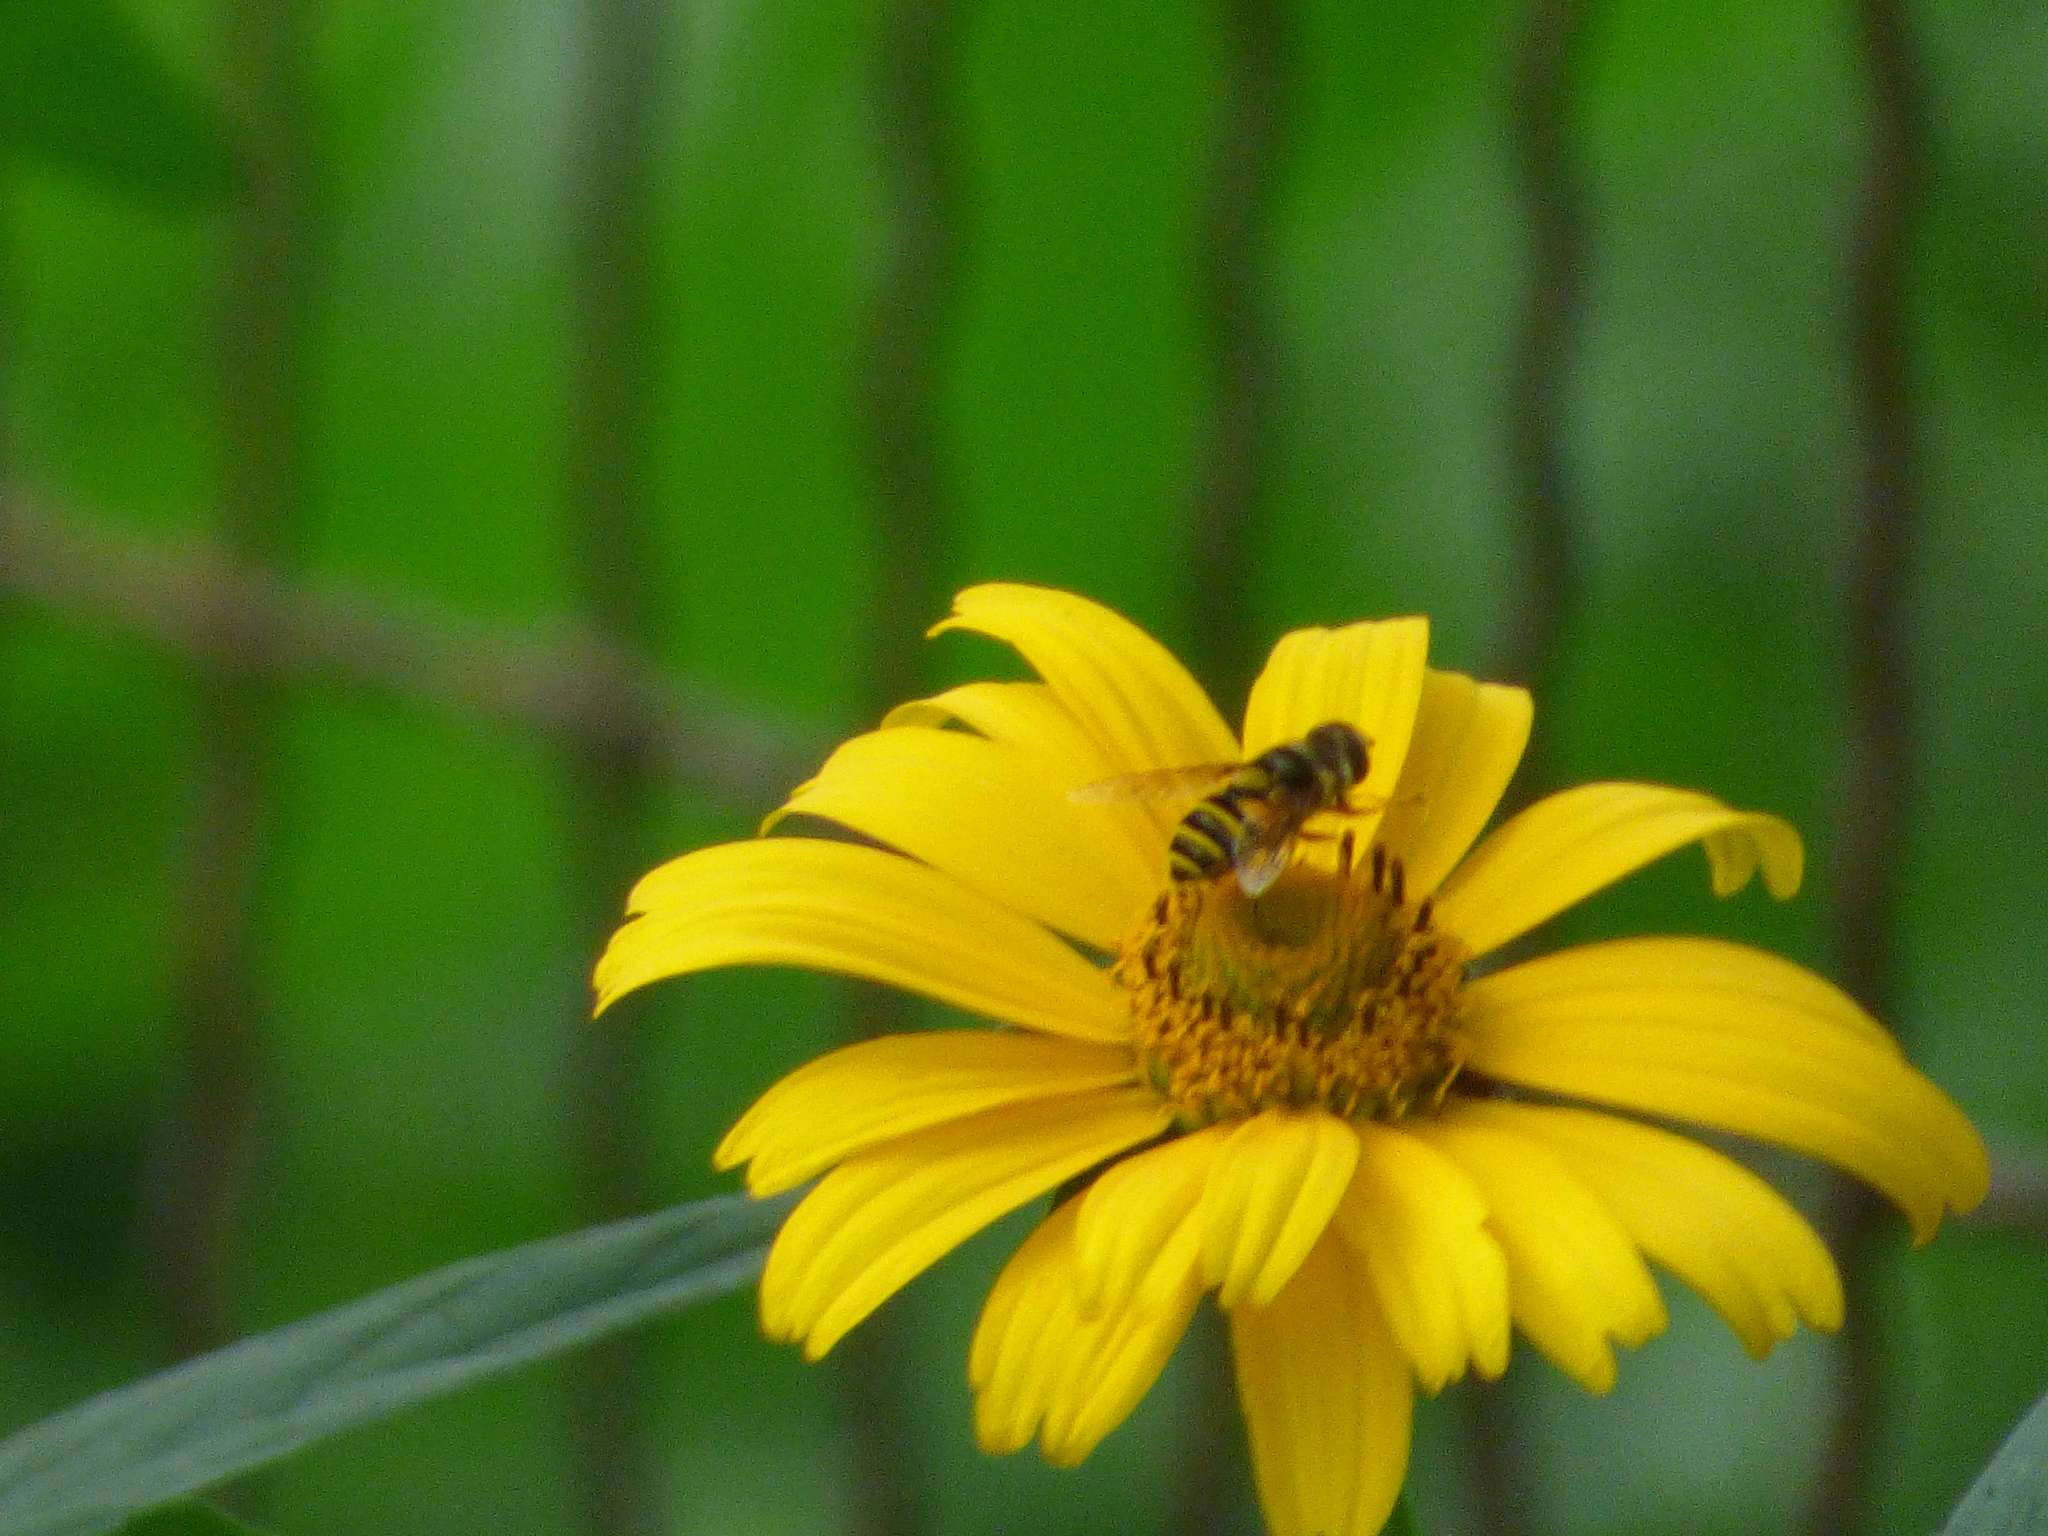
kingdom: Animalia
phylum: Arthropoda
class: Insecta
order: Diptera
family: Syrphidae
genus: Eristalis
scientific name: Eristalis transversa
